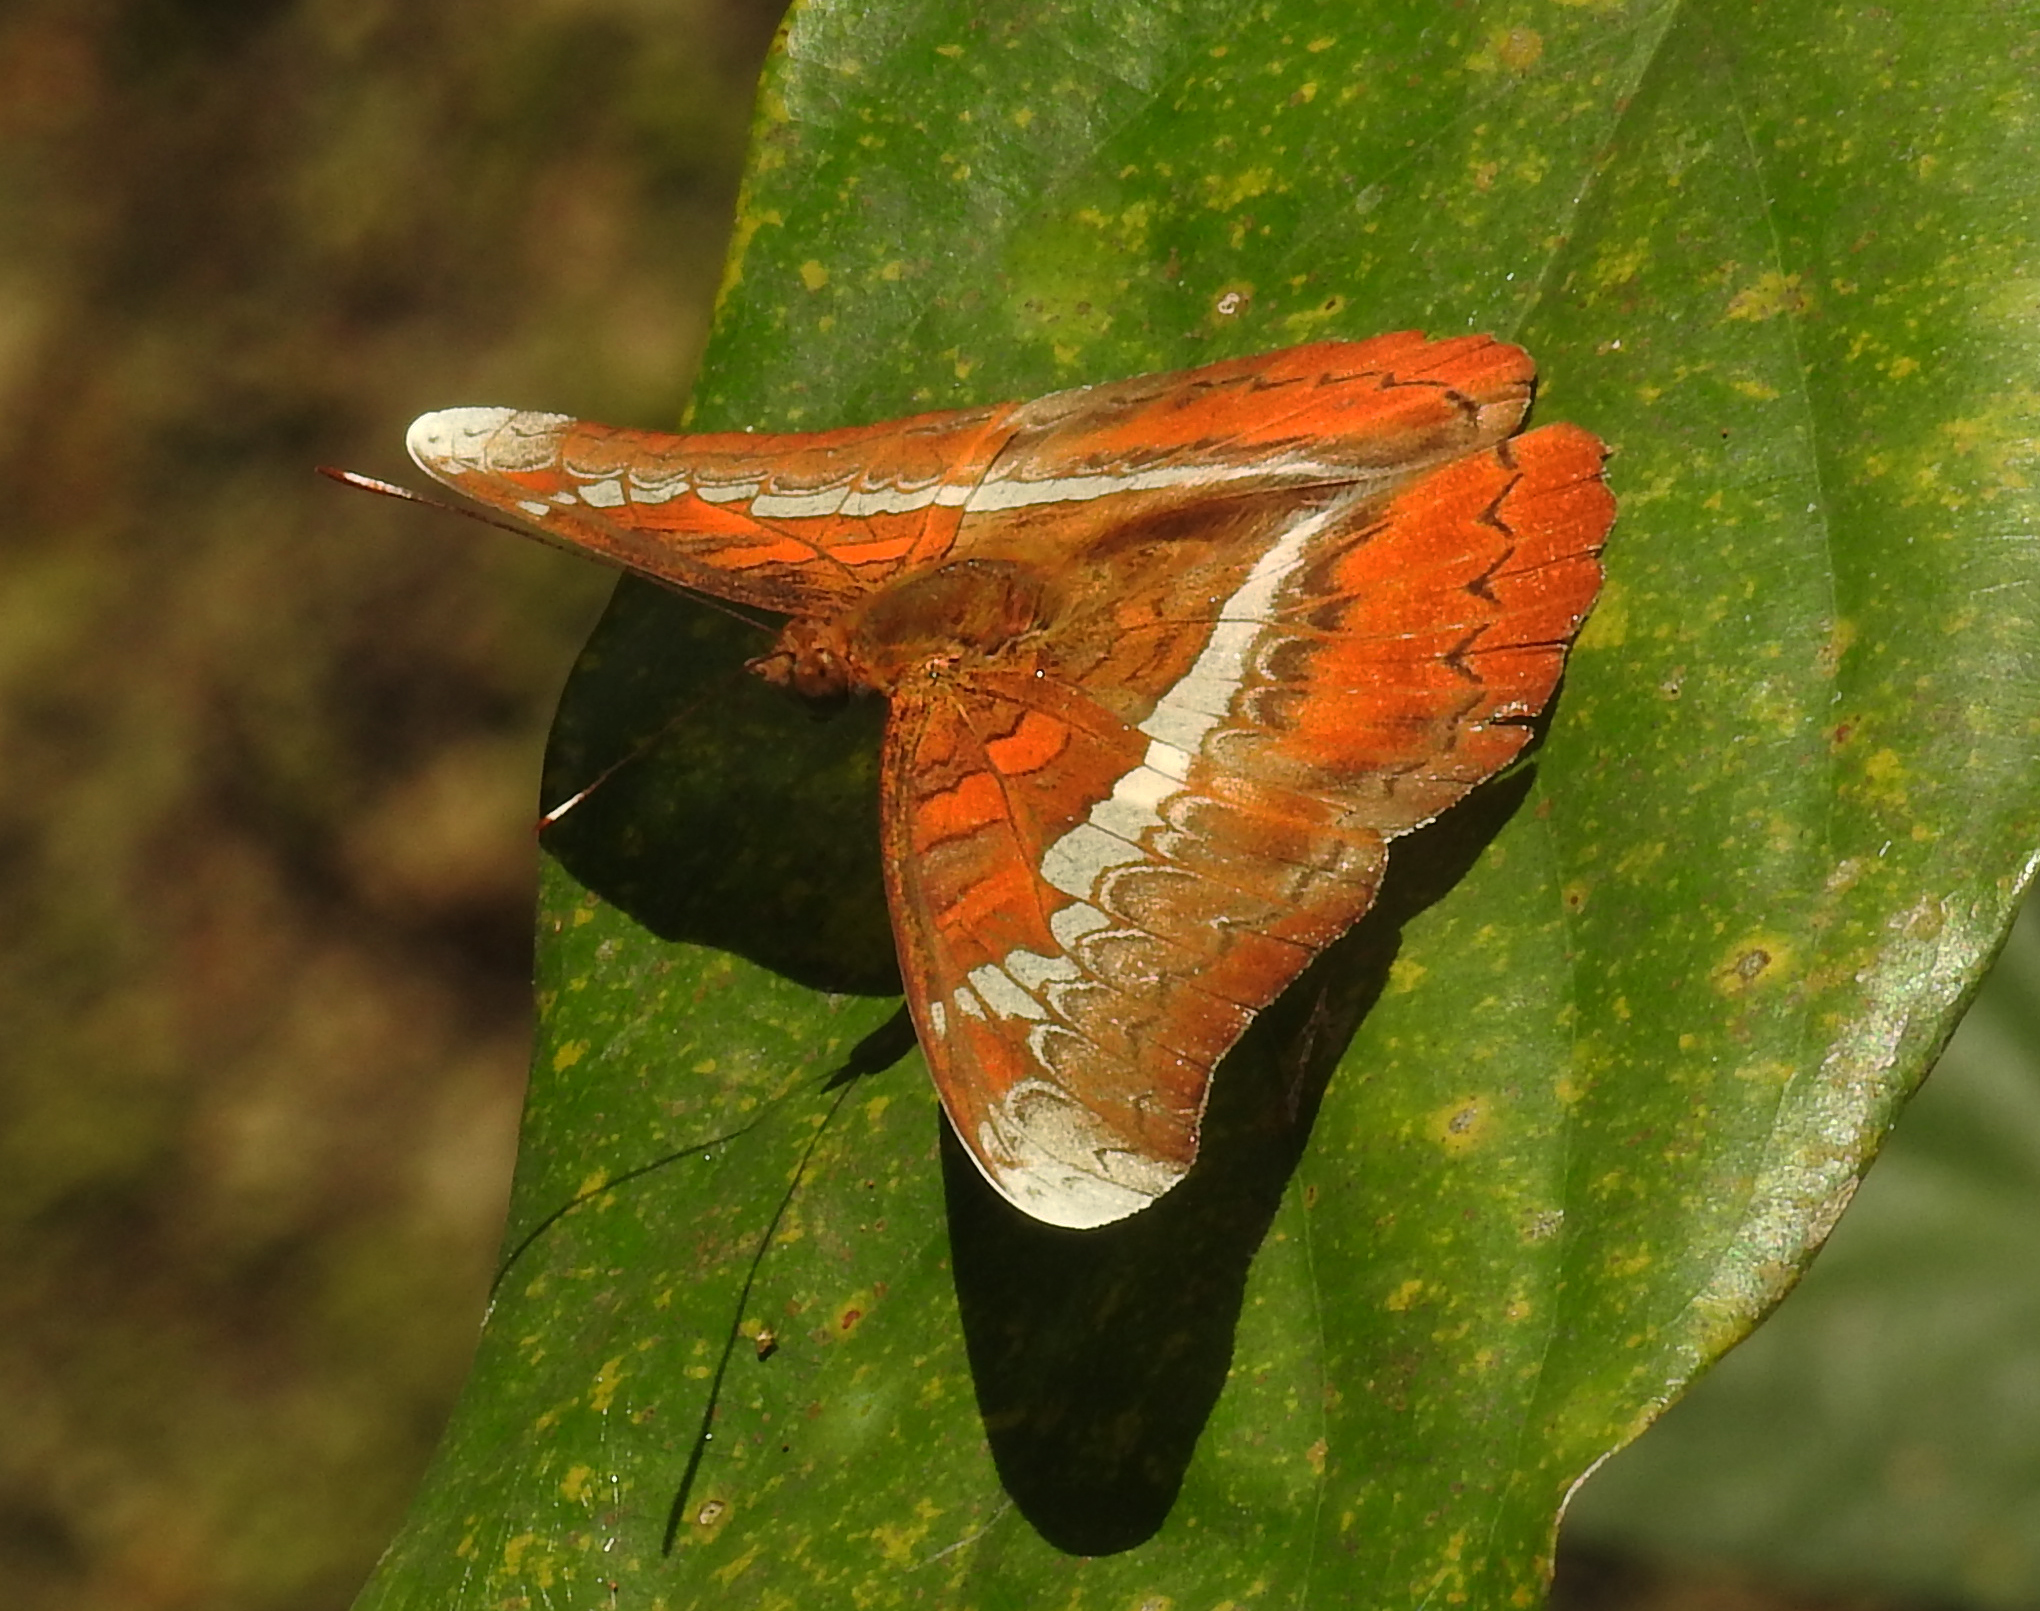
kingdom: Animalia
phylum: Arthropoda
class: Insecta
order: Lepidoptera
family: Nymphalidae
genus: Lebadea
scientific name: Lebadea martha
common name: Knight
